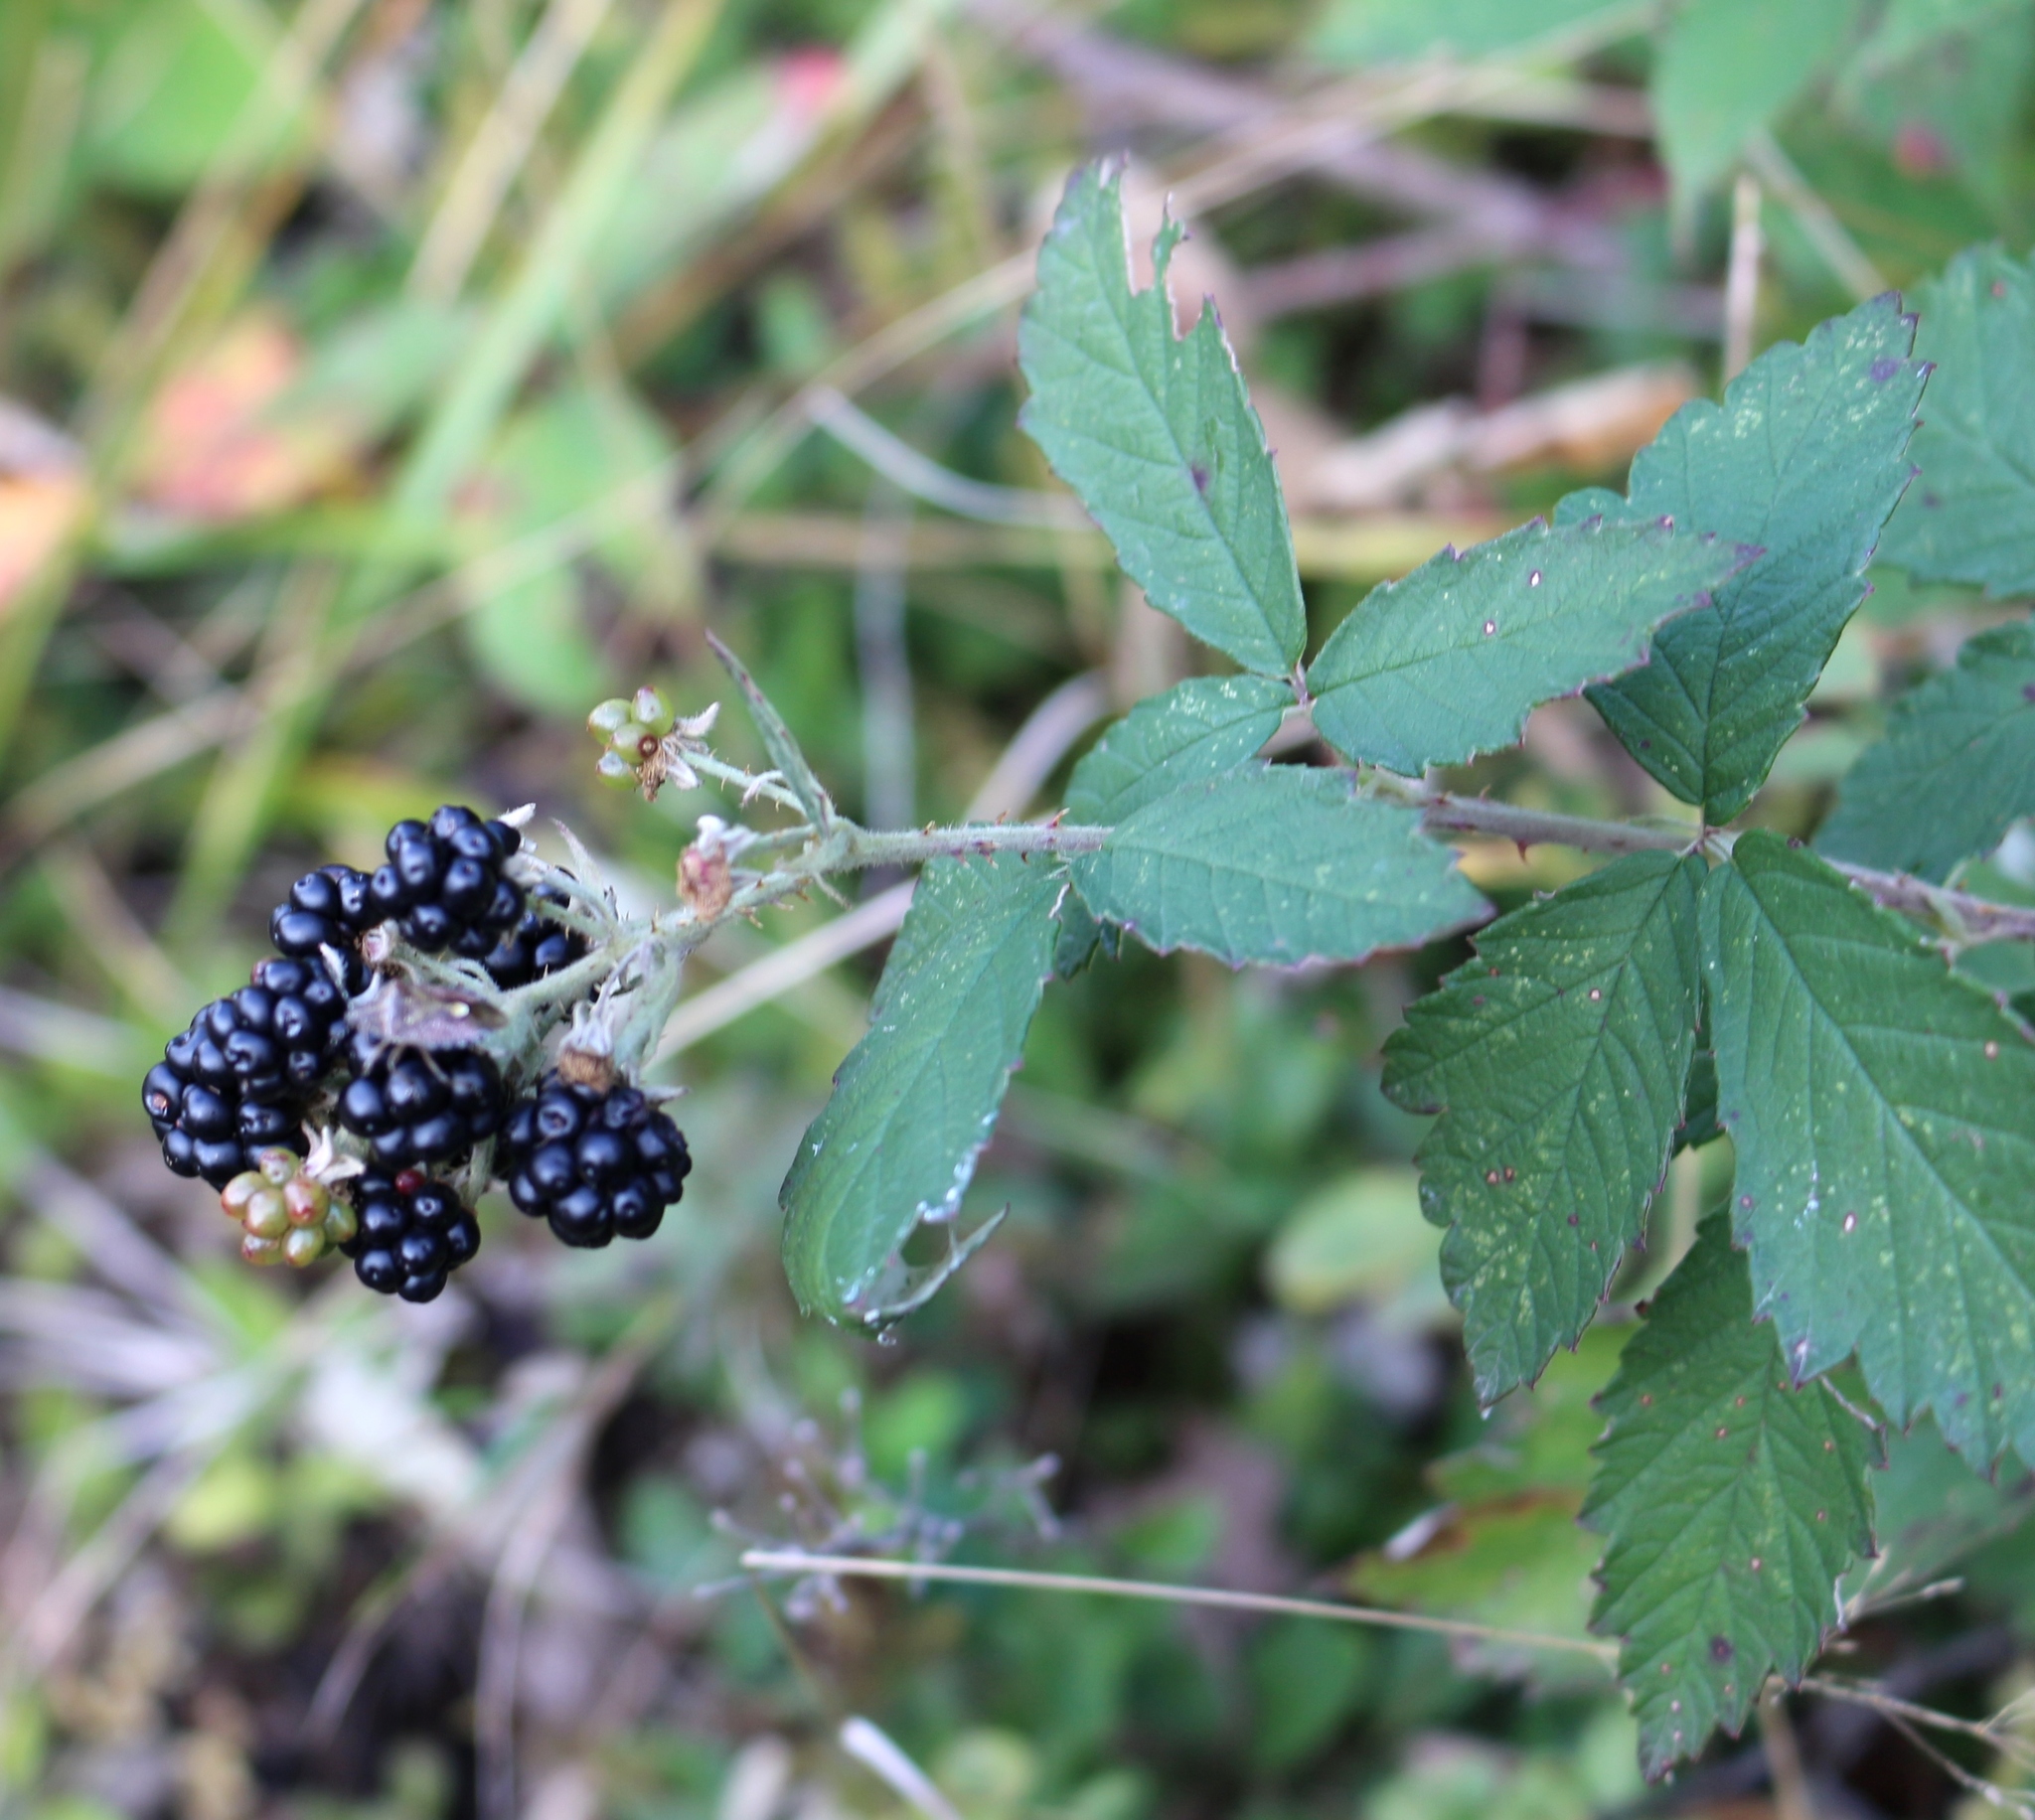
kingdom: Plantae
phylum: Tracheophyta
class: Magnoliopsida
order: Rosales
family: Rosaceae
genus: Rubus
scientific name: Rubus canescens
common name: Wooly blackberry
